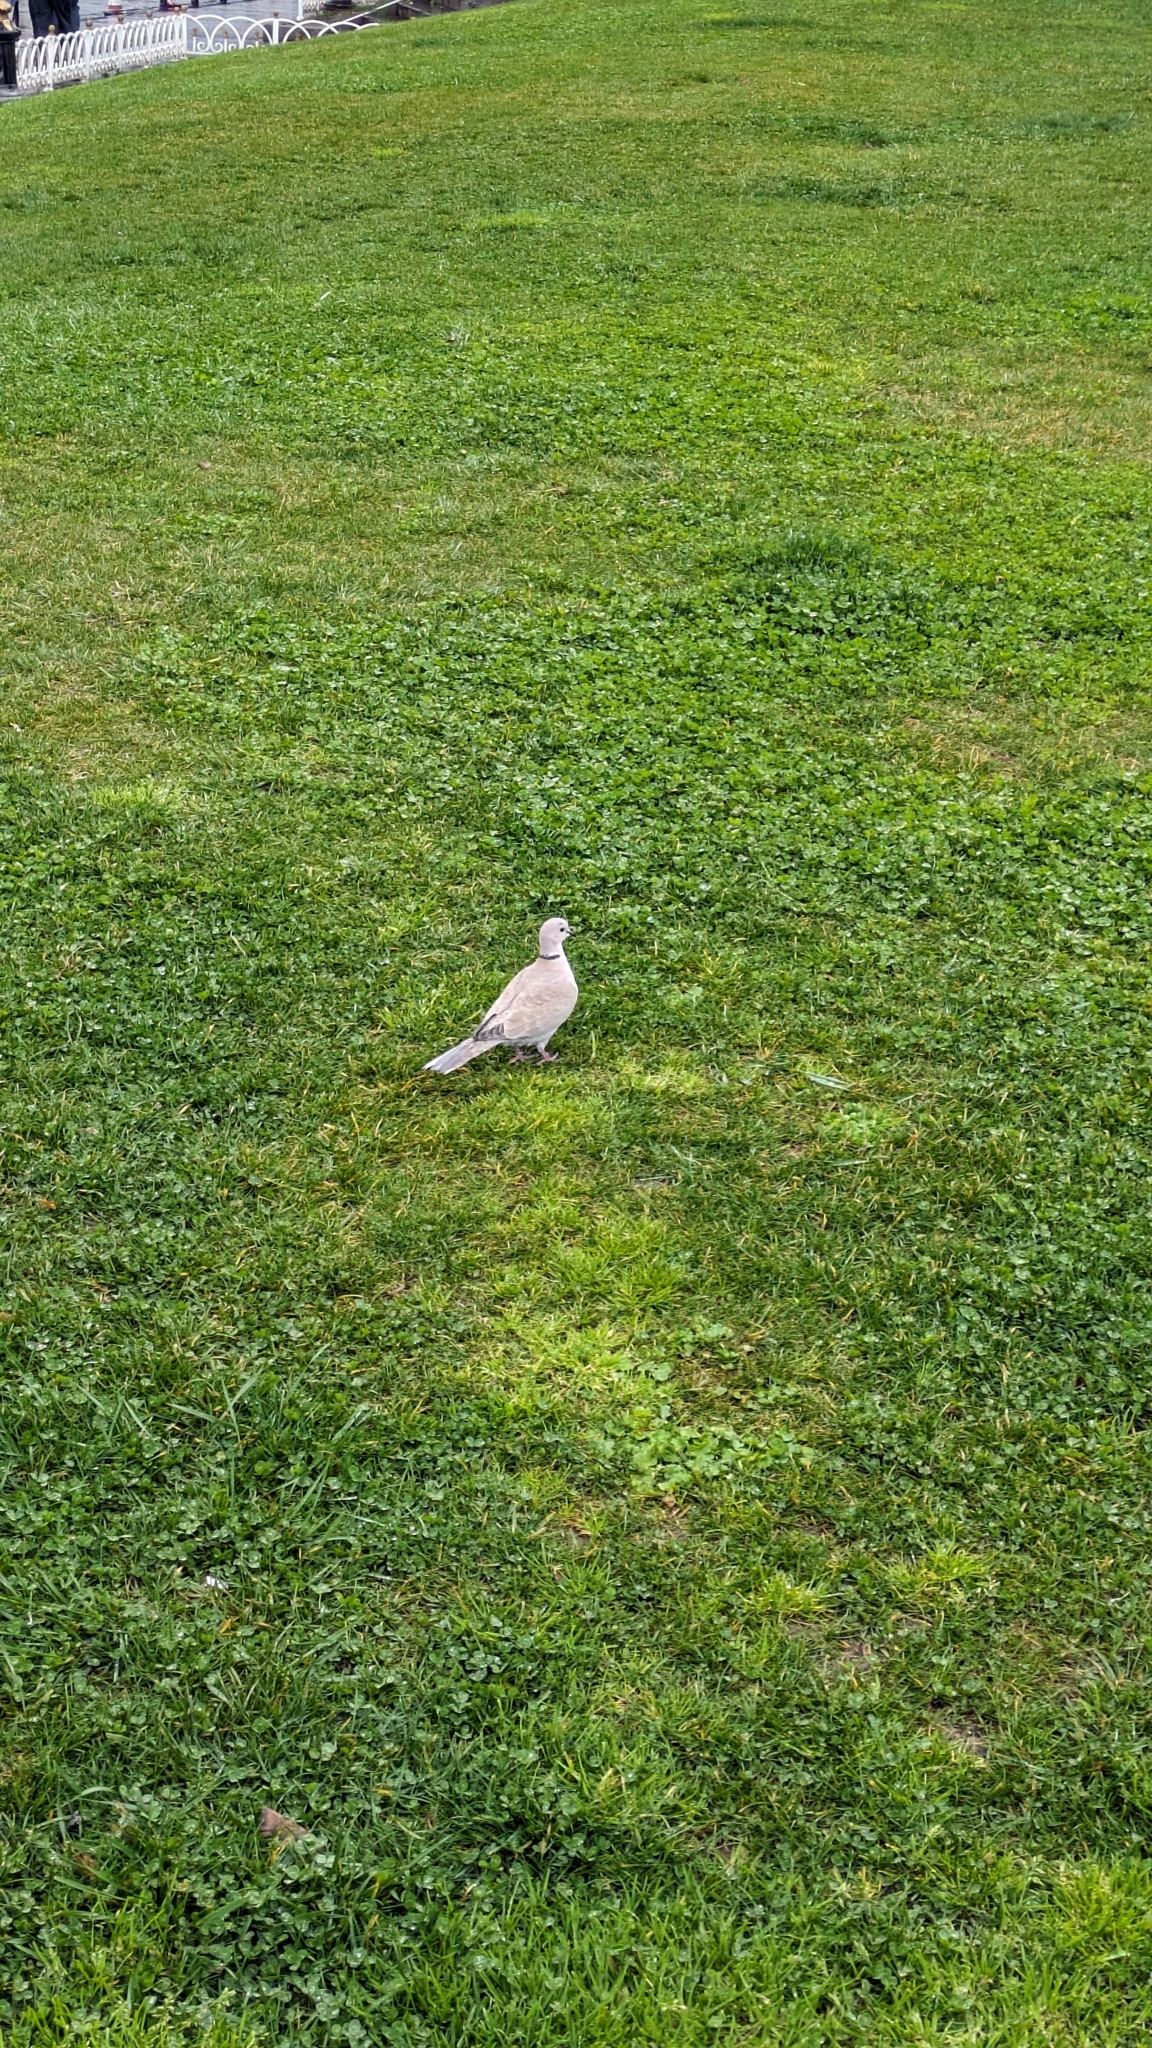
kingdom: Animalia
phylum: Chordata
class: Aves
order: Columbiformes
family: Columbidae
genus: Streptopelia
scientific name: Streptopelia decaocto
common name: Eurasian collared dove
